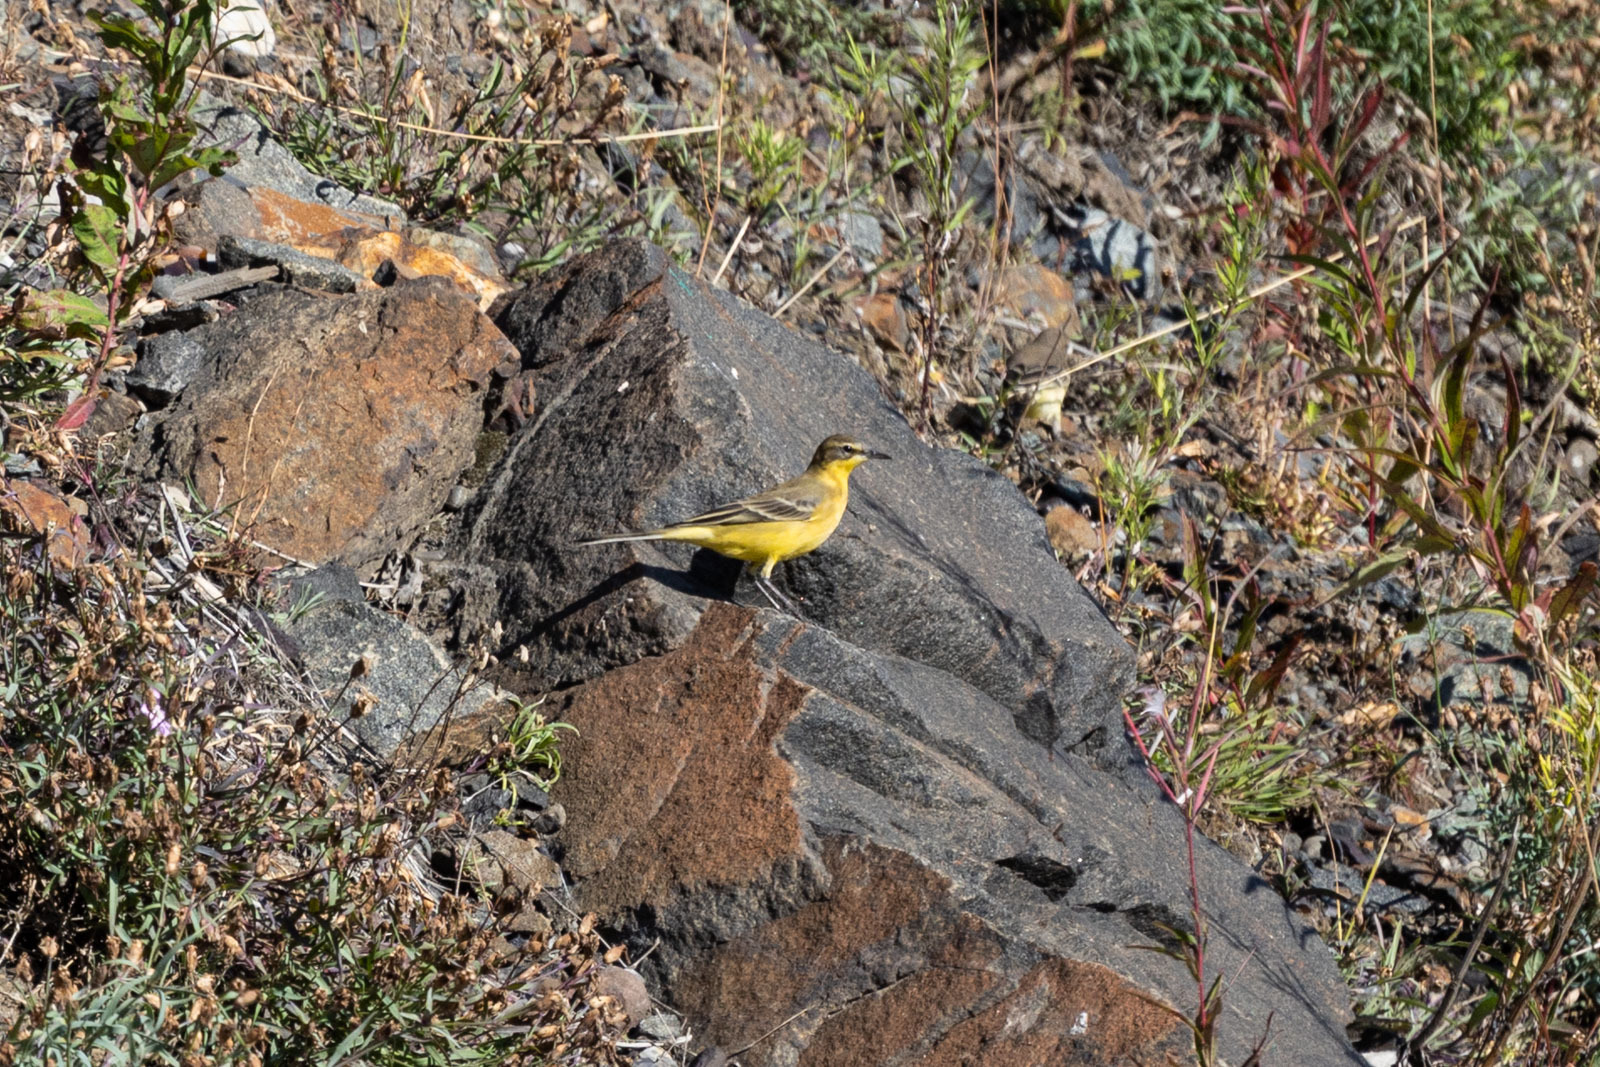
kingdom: Animalia
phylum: Chordata
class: Aves
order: Passeriformes
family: Motacillidae
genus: Motacilla
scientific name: Motacilla tschutschensis
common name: Eastern yellow wagtail
